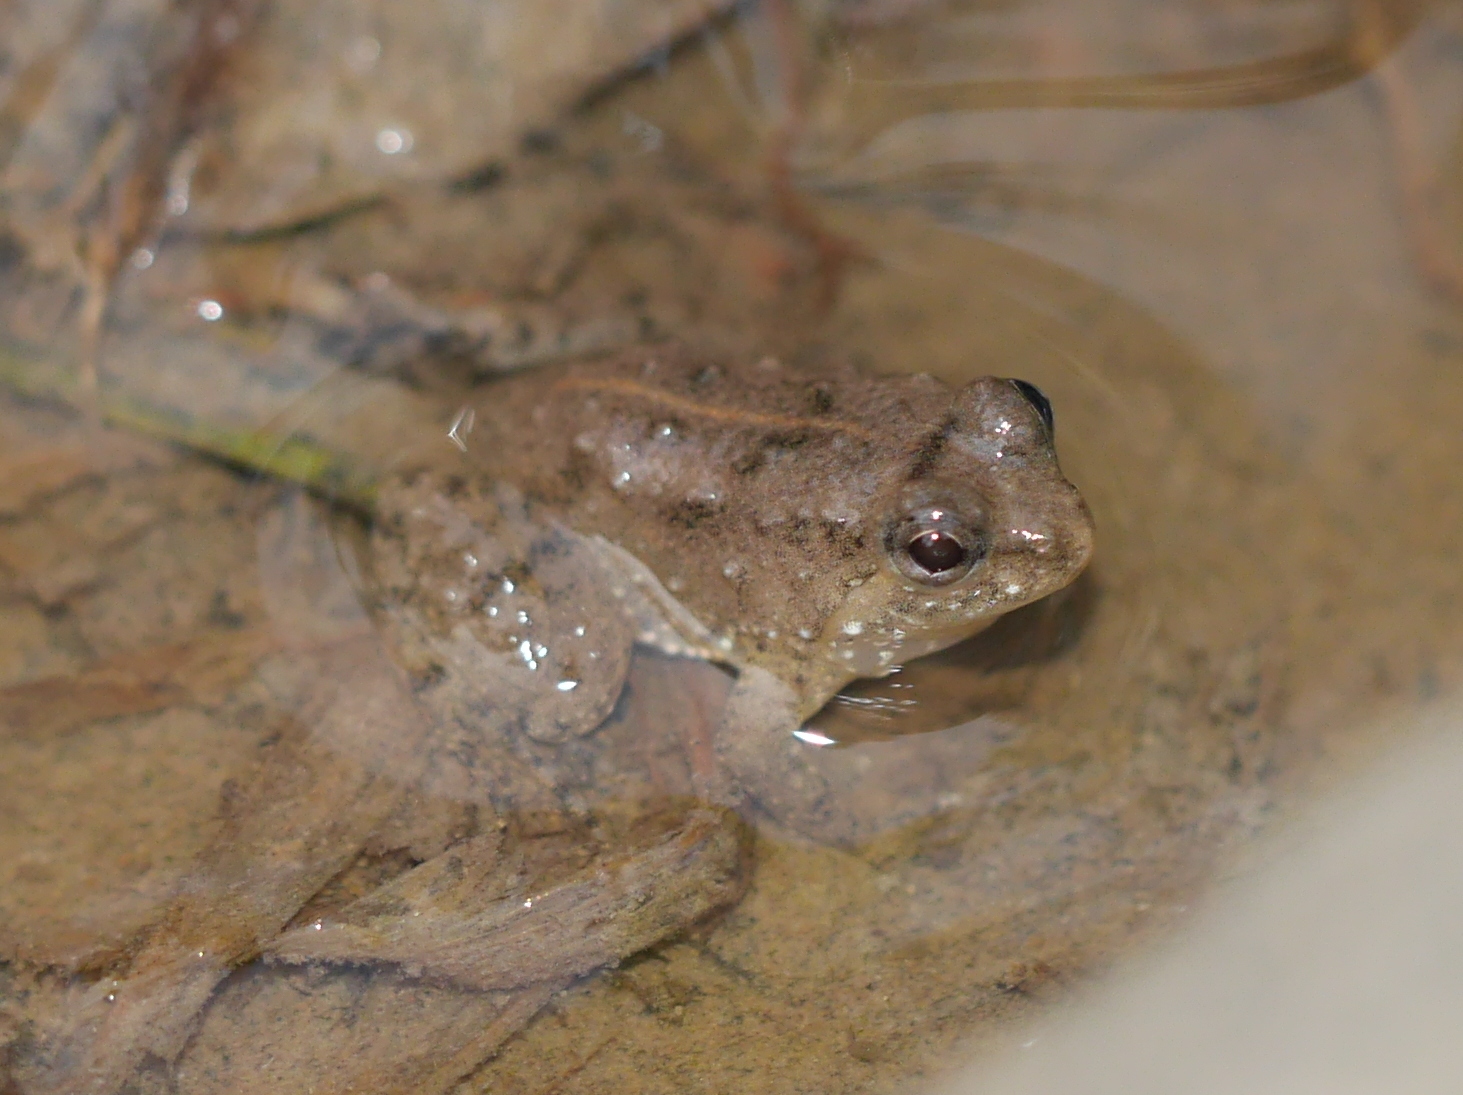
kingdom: Animalia
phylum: Chordata
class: Amphibia
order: Anura
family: Dicroglossidae
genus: Occidozyga
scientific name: Occidozyga sumatrana
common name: Puddle frog
